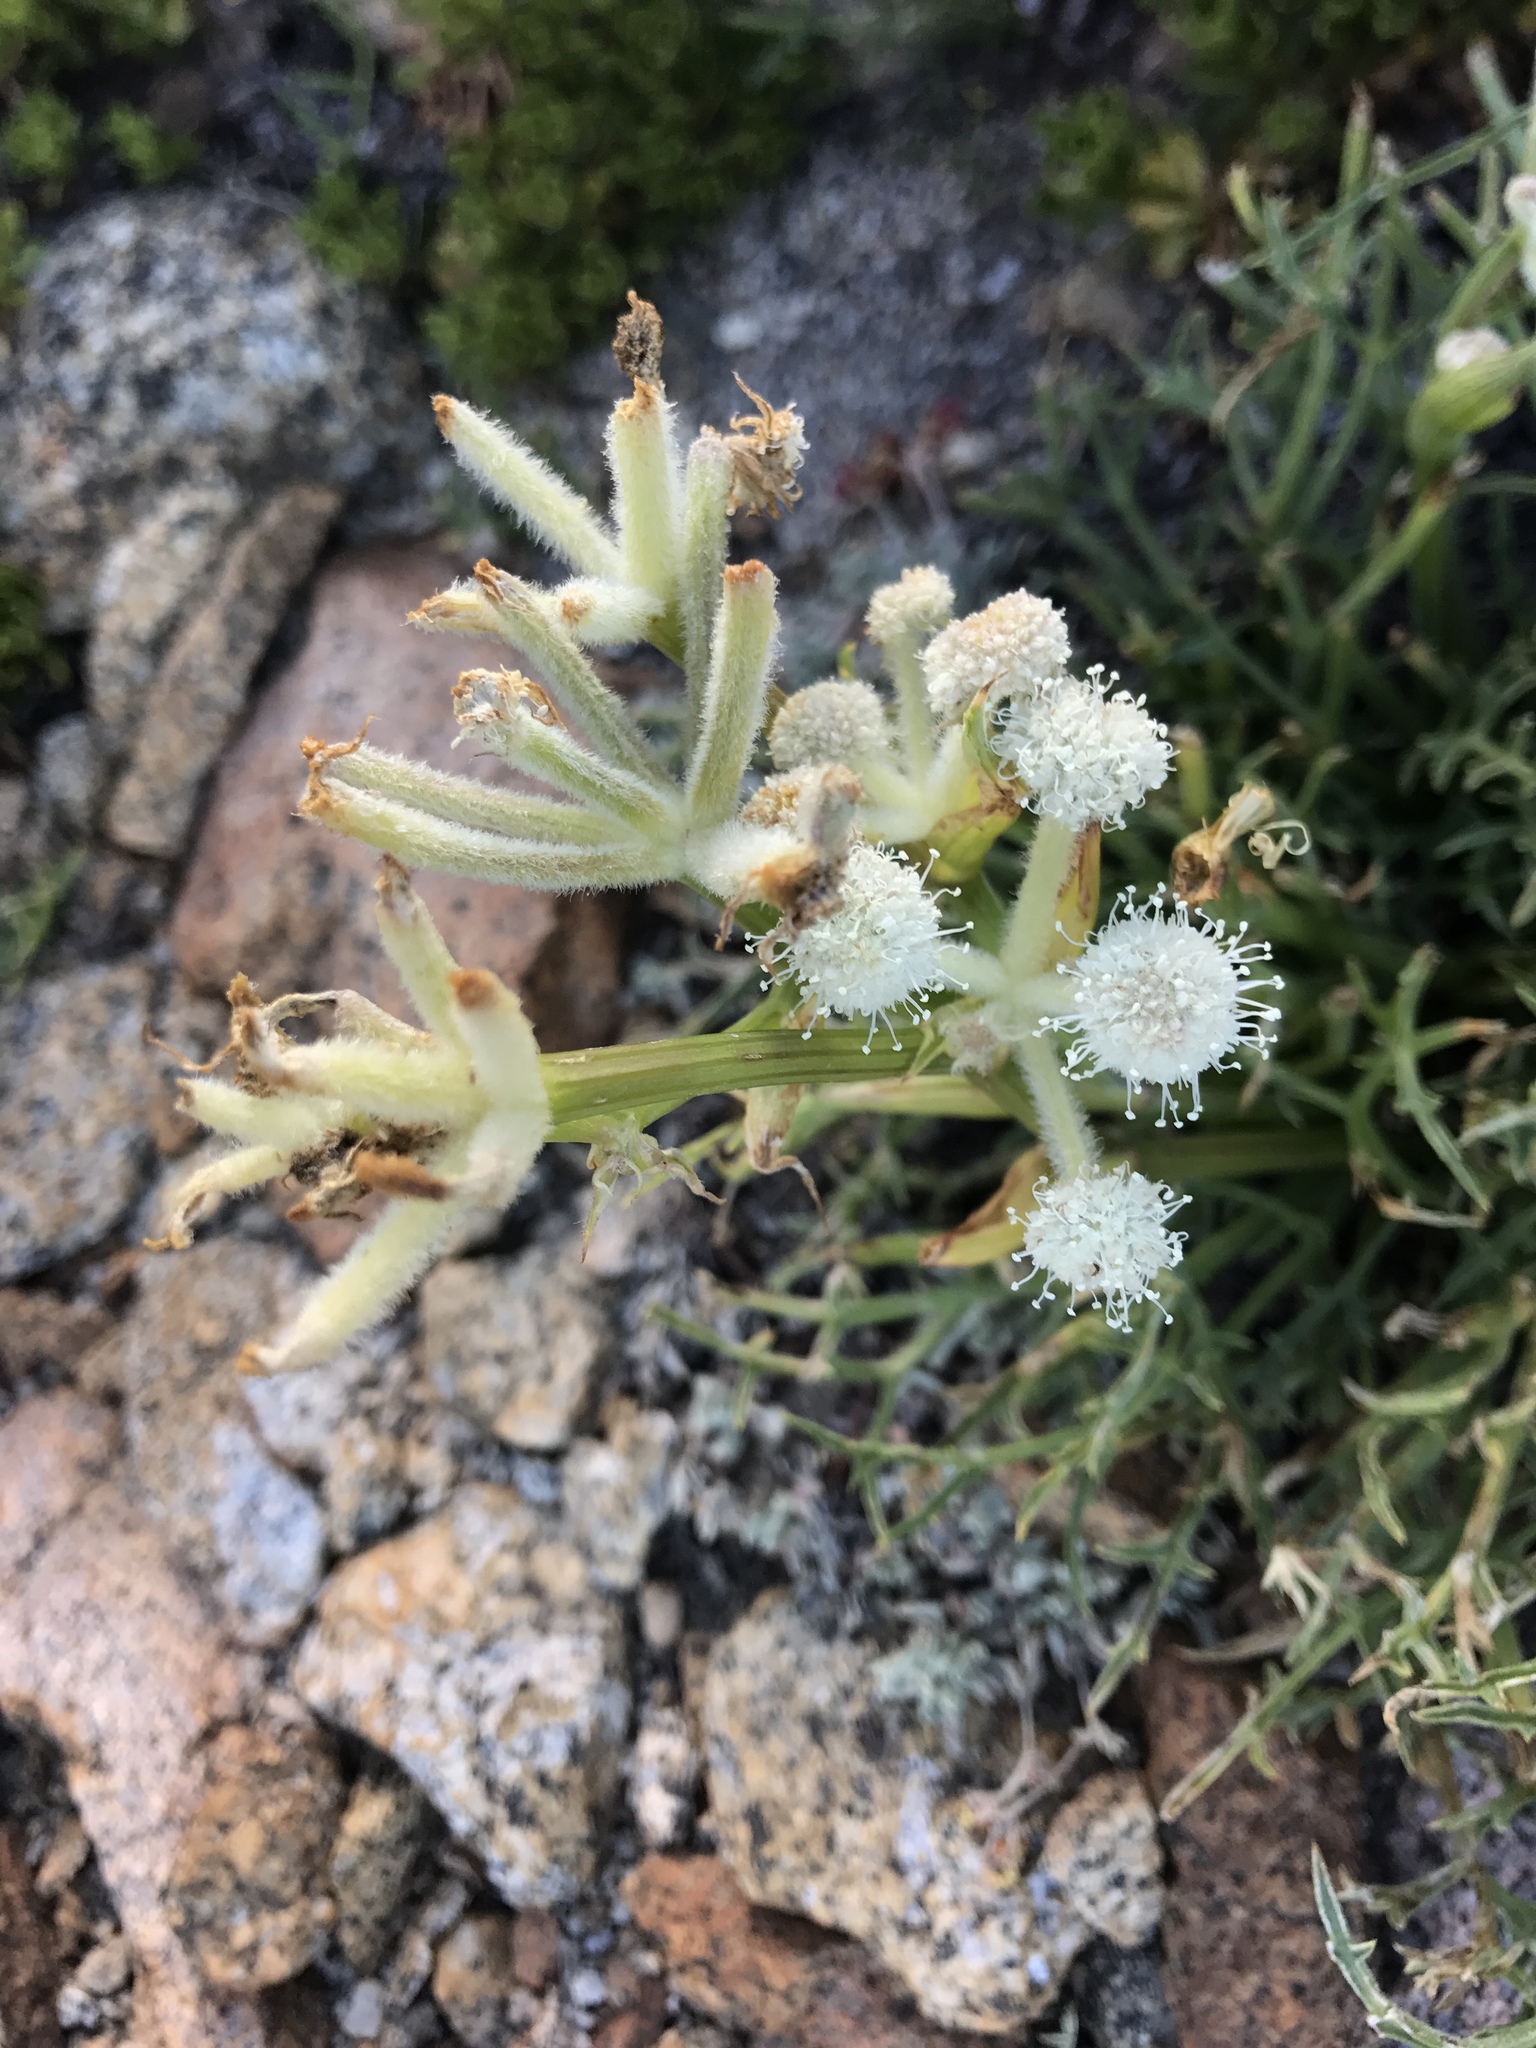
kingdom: Plantae
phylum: Tracheophyta
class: Magnoliopsida
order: Apiales
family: Apiaceae
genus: Angelica
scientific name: Angelica capitellata
